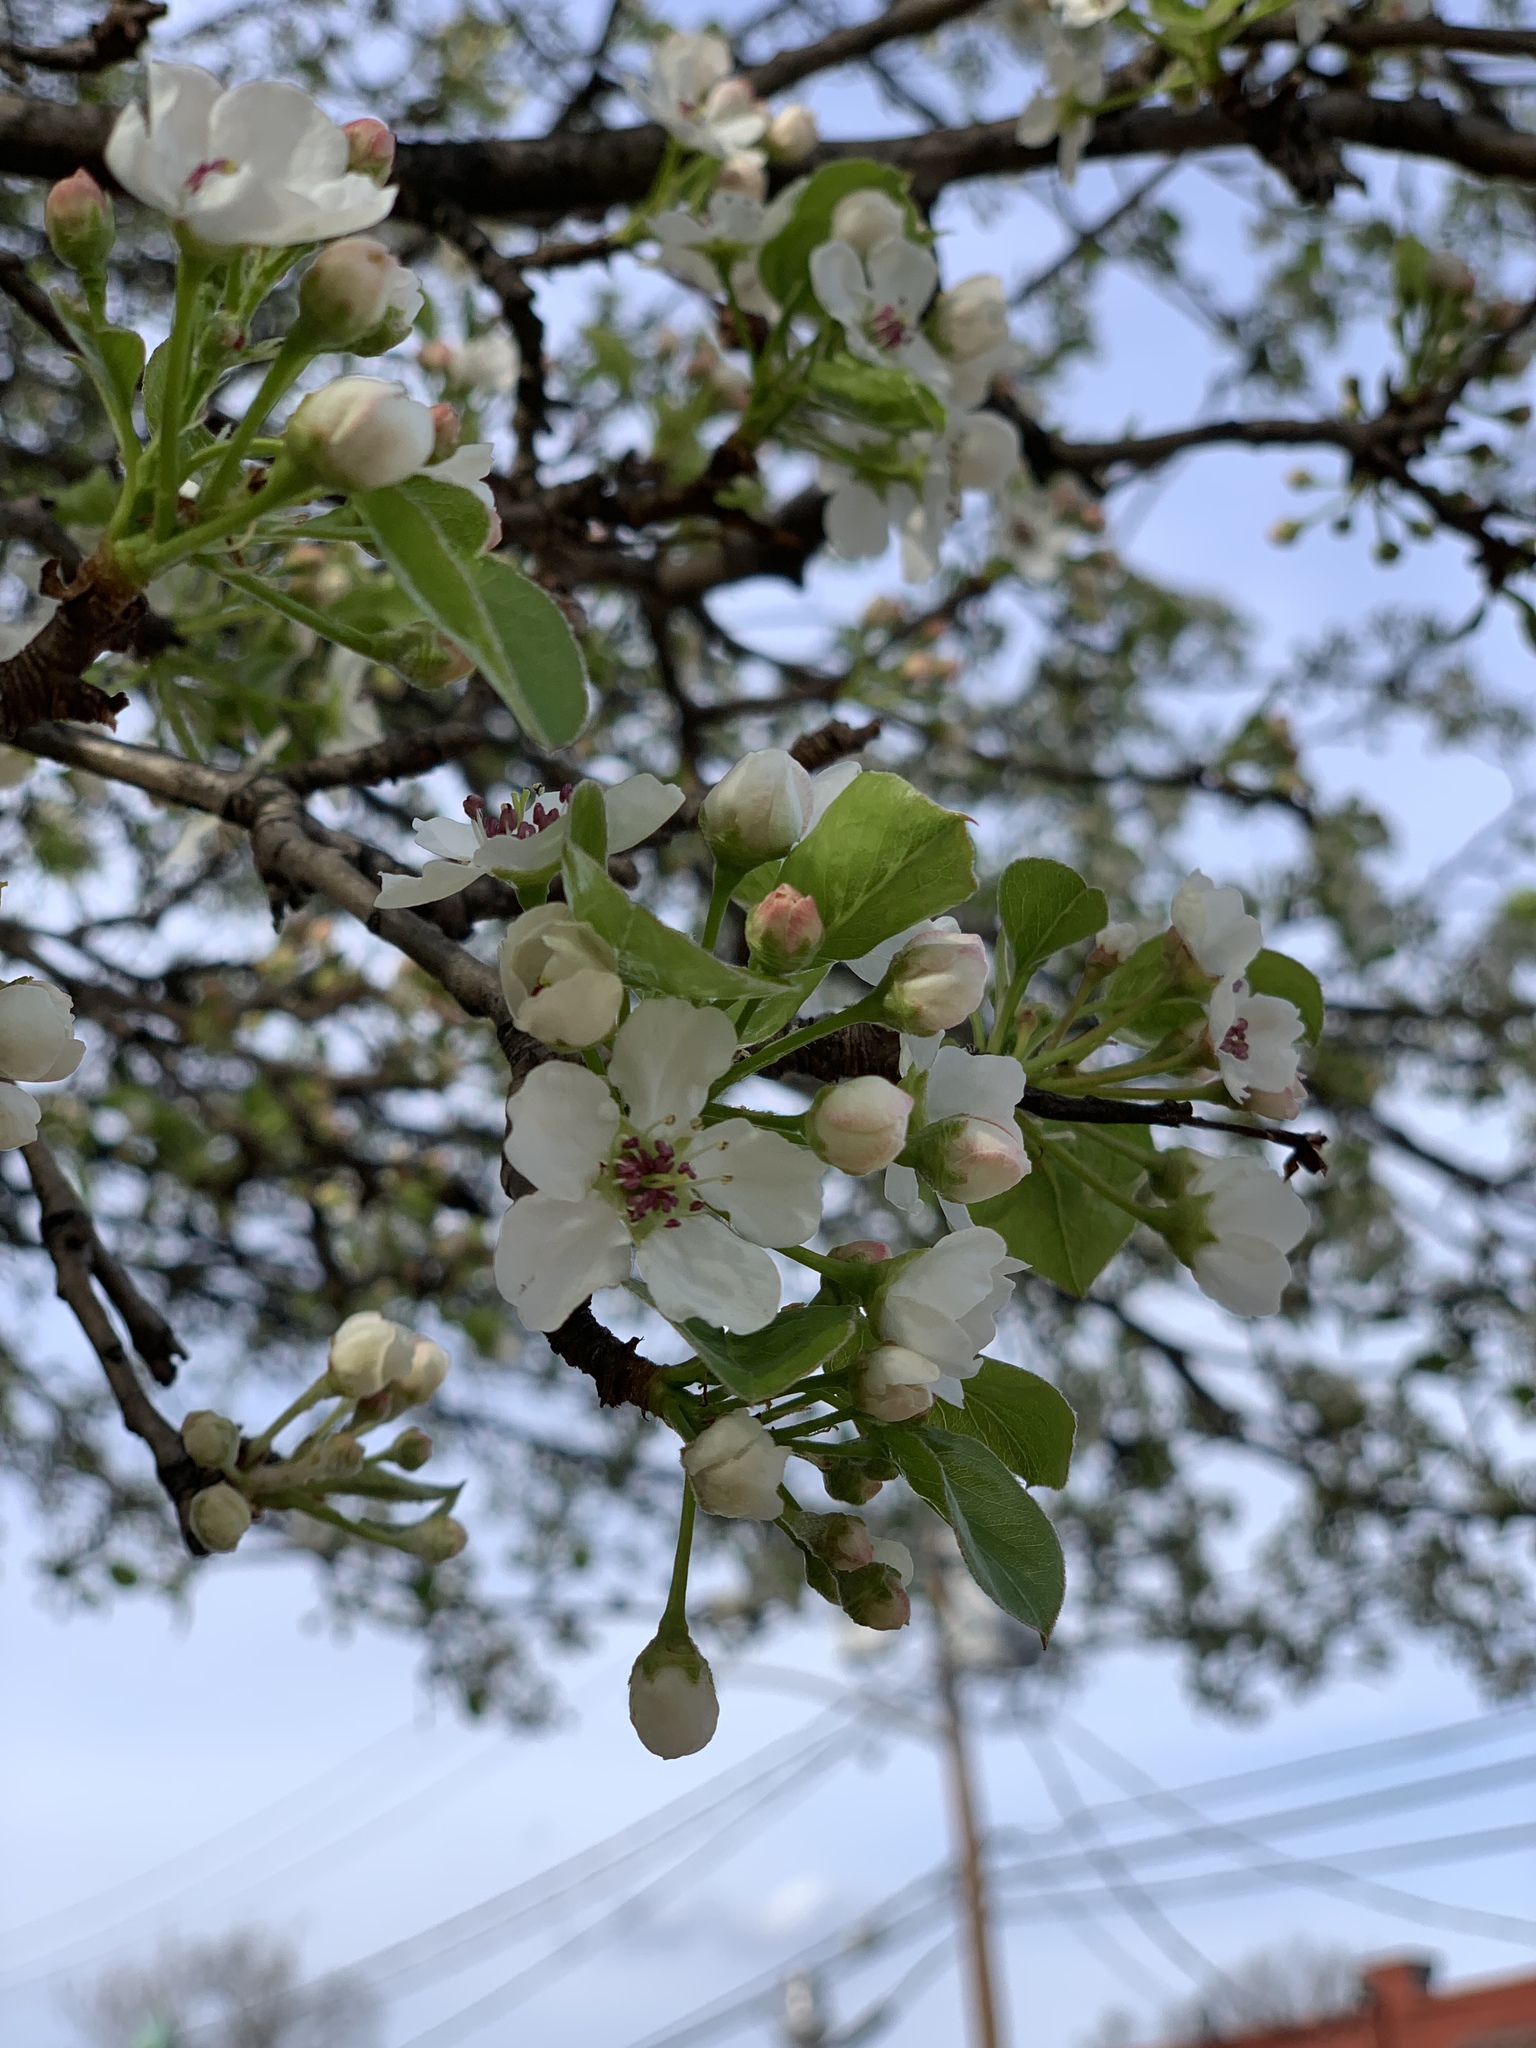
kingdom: Plantae
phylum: Tracheophyta
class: Magnoliopsida
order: Rosales
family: Rosaceae
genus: Pyrus
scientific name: Pyrus calleryana
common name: Callery pear
